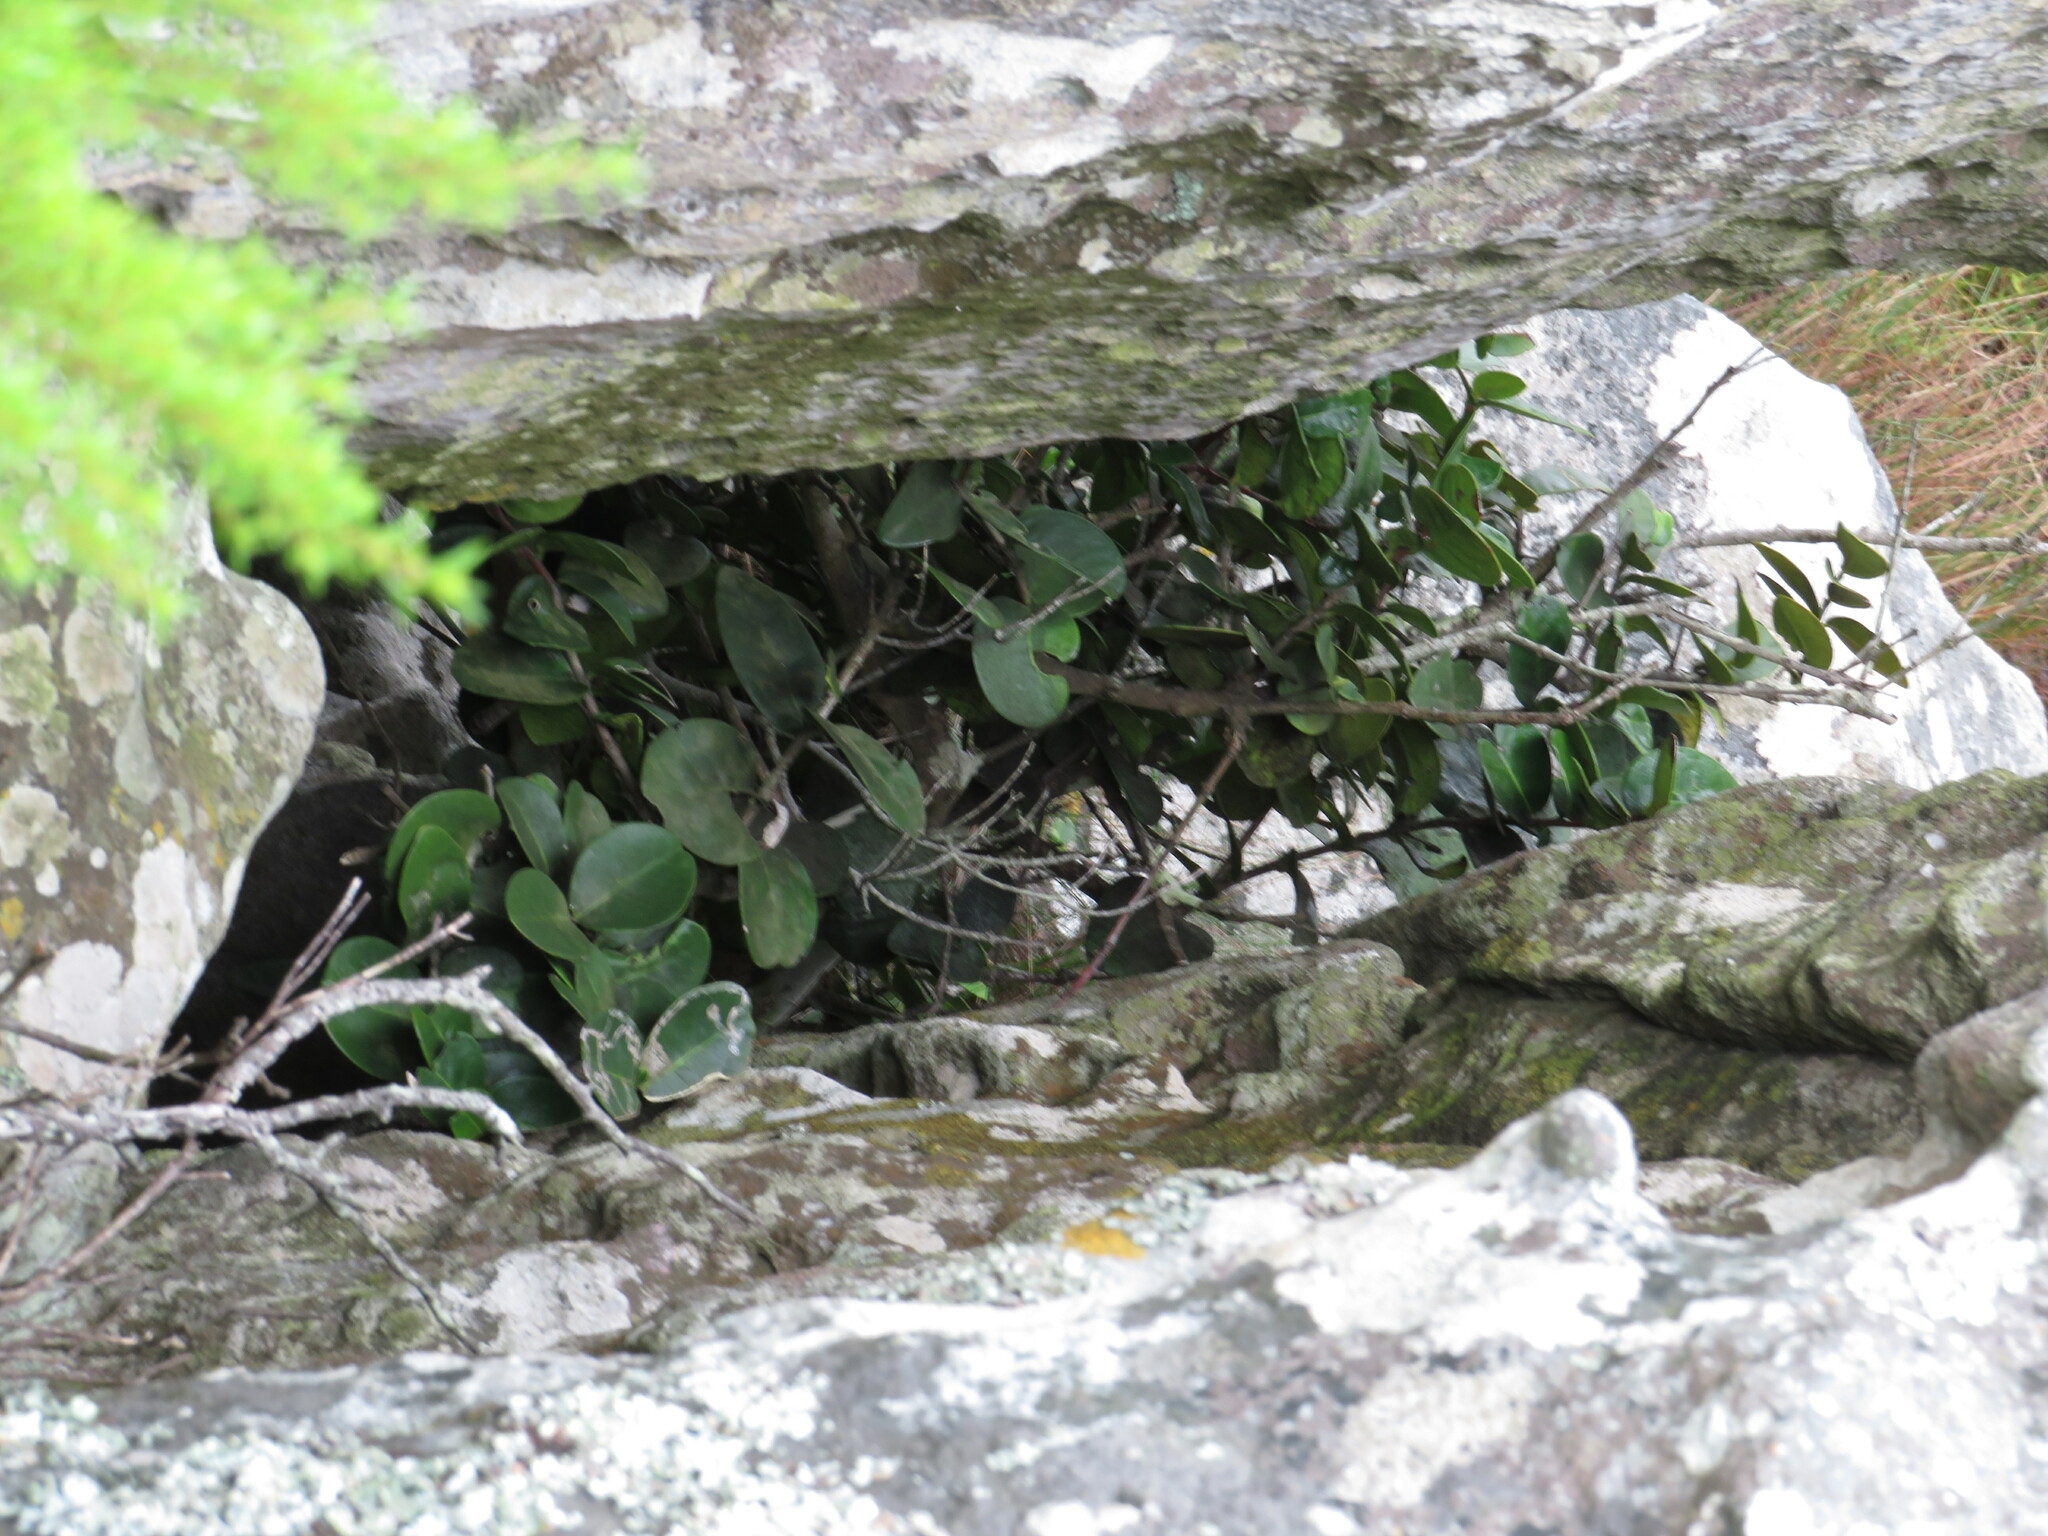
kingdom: Plantae
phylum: Tracheophyta
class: Magnoliopsida
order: Celastrales
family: Celastraceae
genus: Maurocenia
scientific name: Maurocenia frangula
